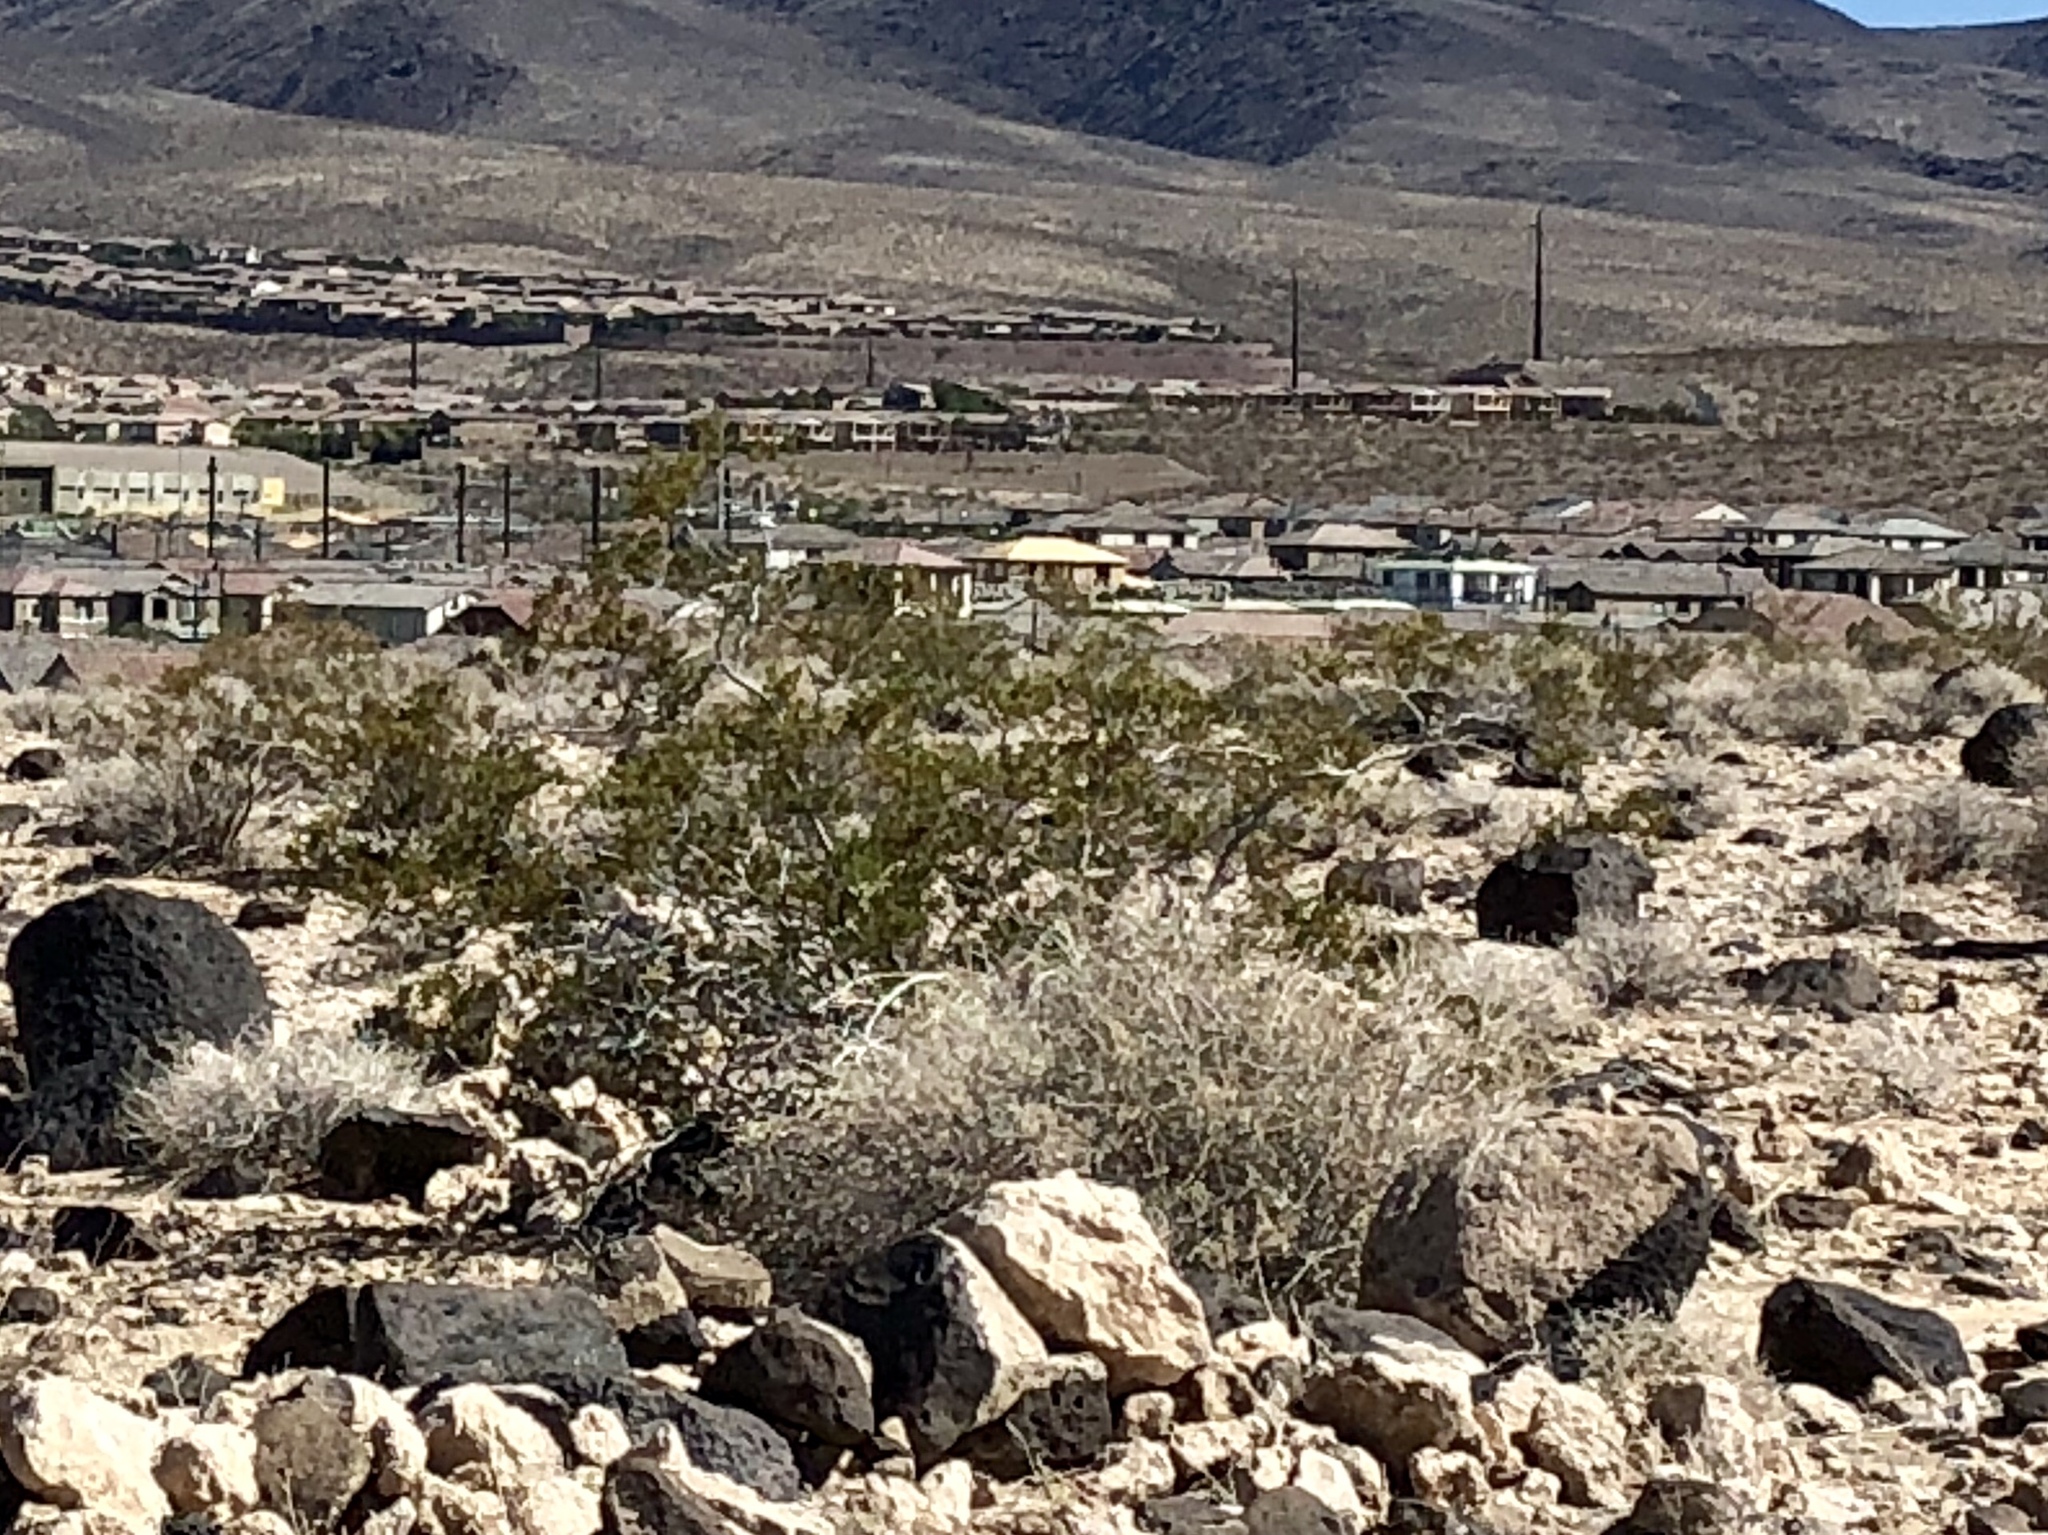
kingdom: Plantae
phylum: Tracheophyta
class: Magnoliopsida
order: Zygophyllales
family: Zygophyllaceae
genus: Larrea
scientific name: Larrea tridentata
